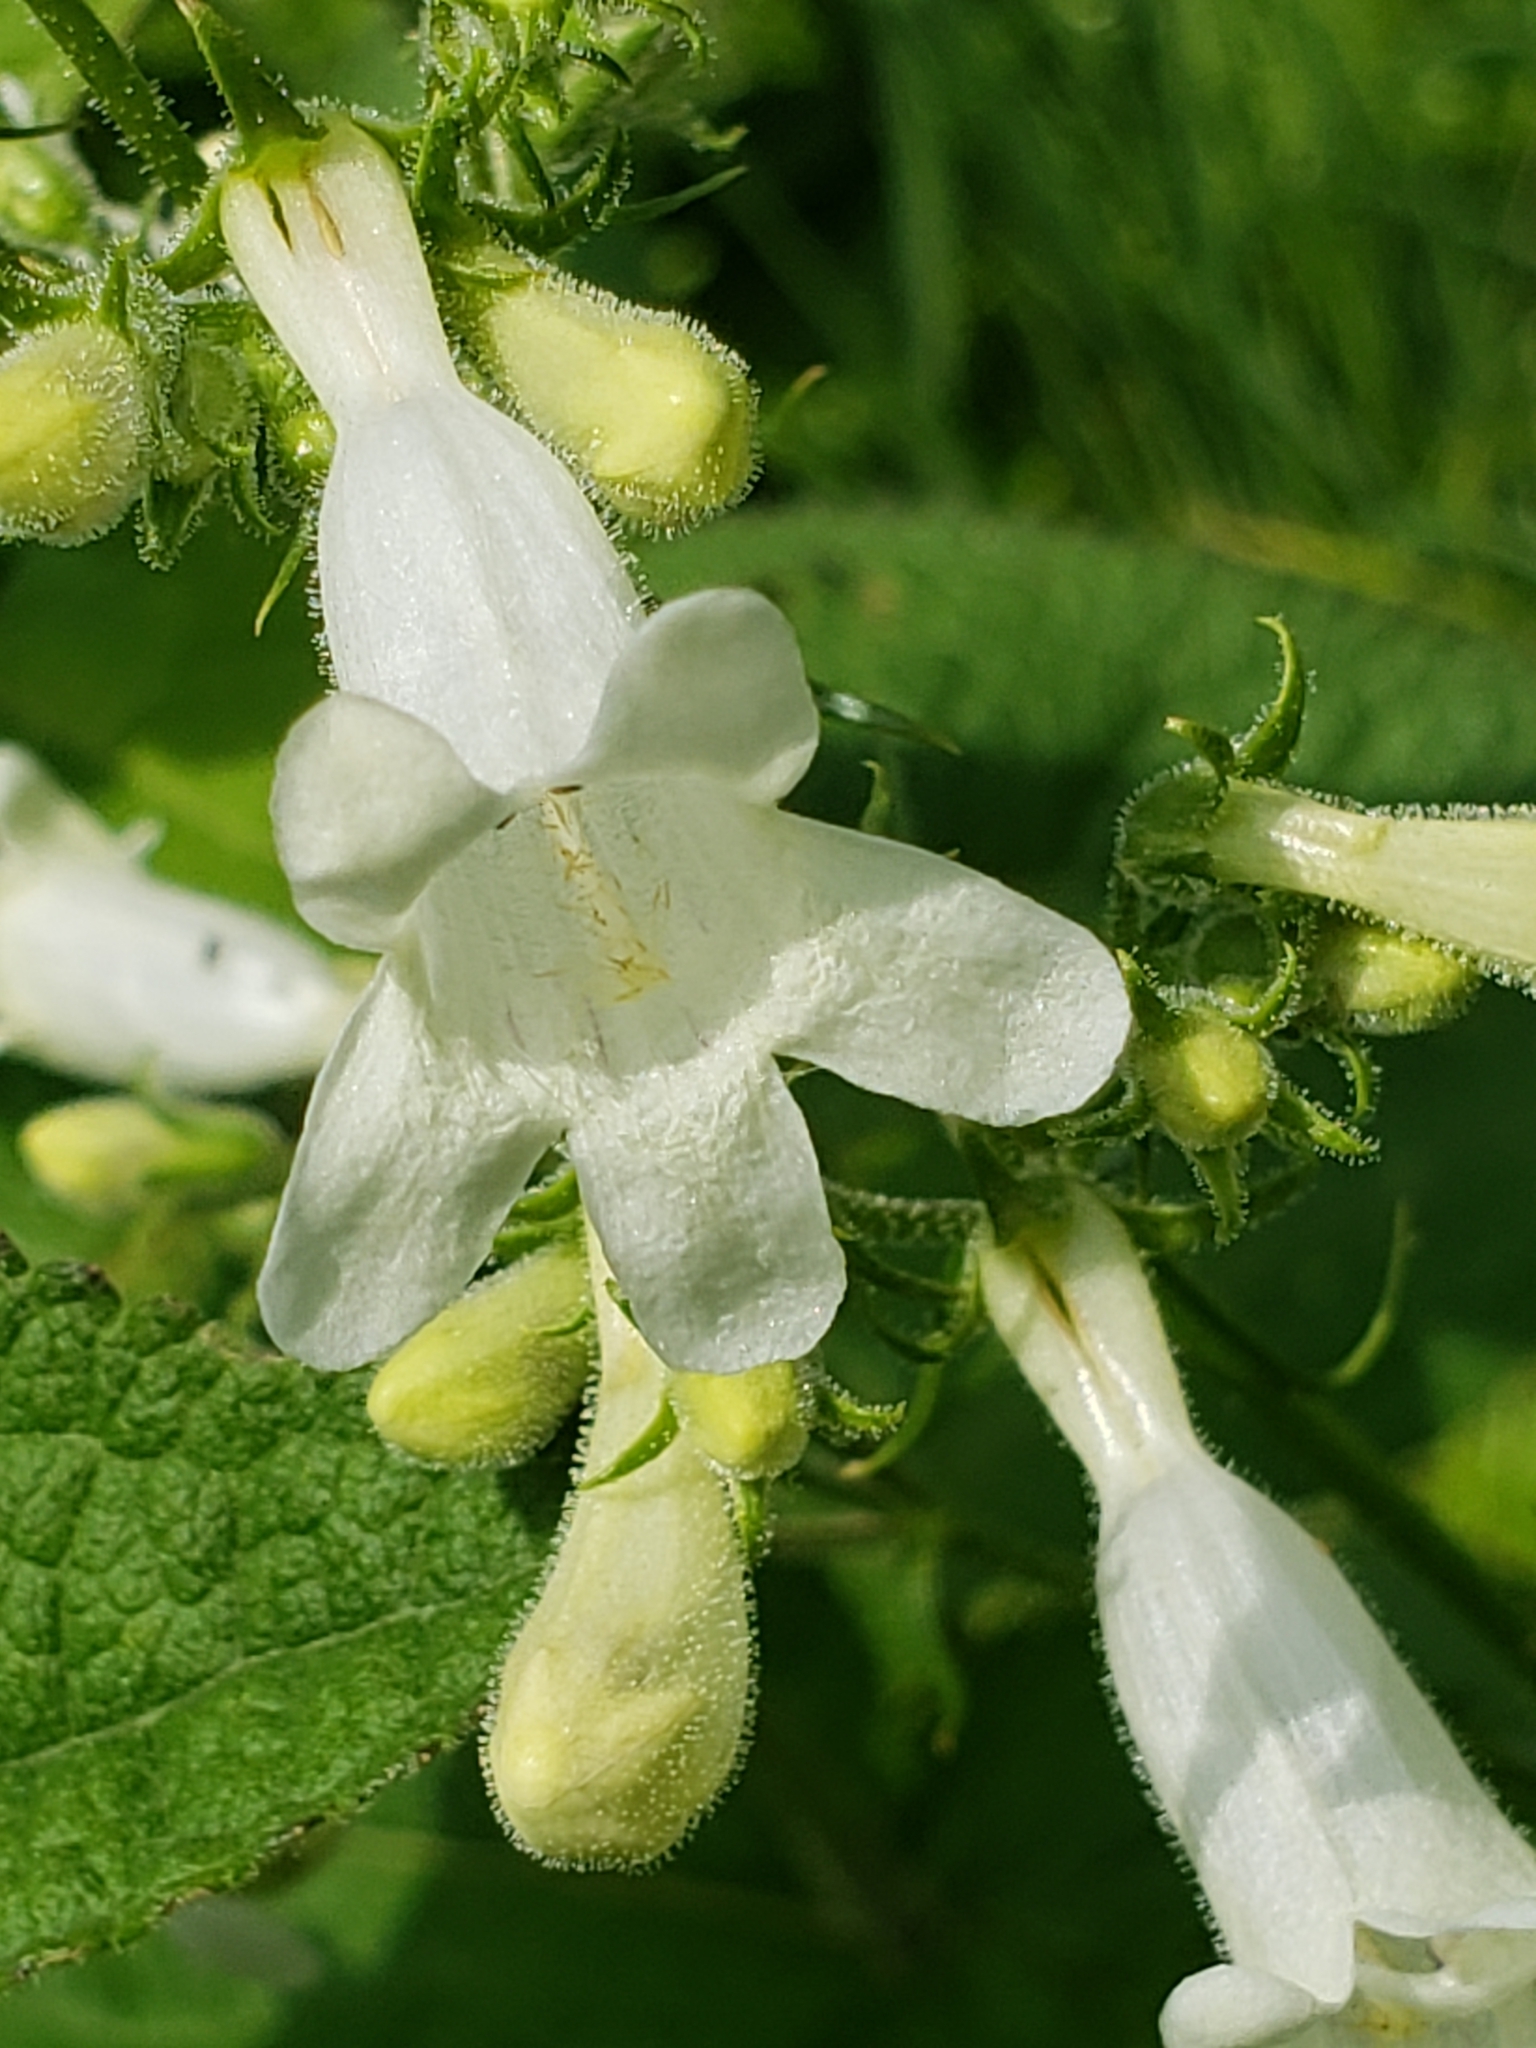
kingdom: Plantae
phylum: Tracheophyta
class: Magnoliopsida
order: Lamiales
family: Plantaginaceae
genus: Penstemon
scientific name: Penstemon digitalis
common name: Foxglove beardtongue
